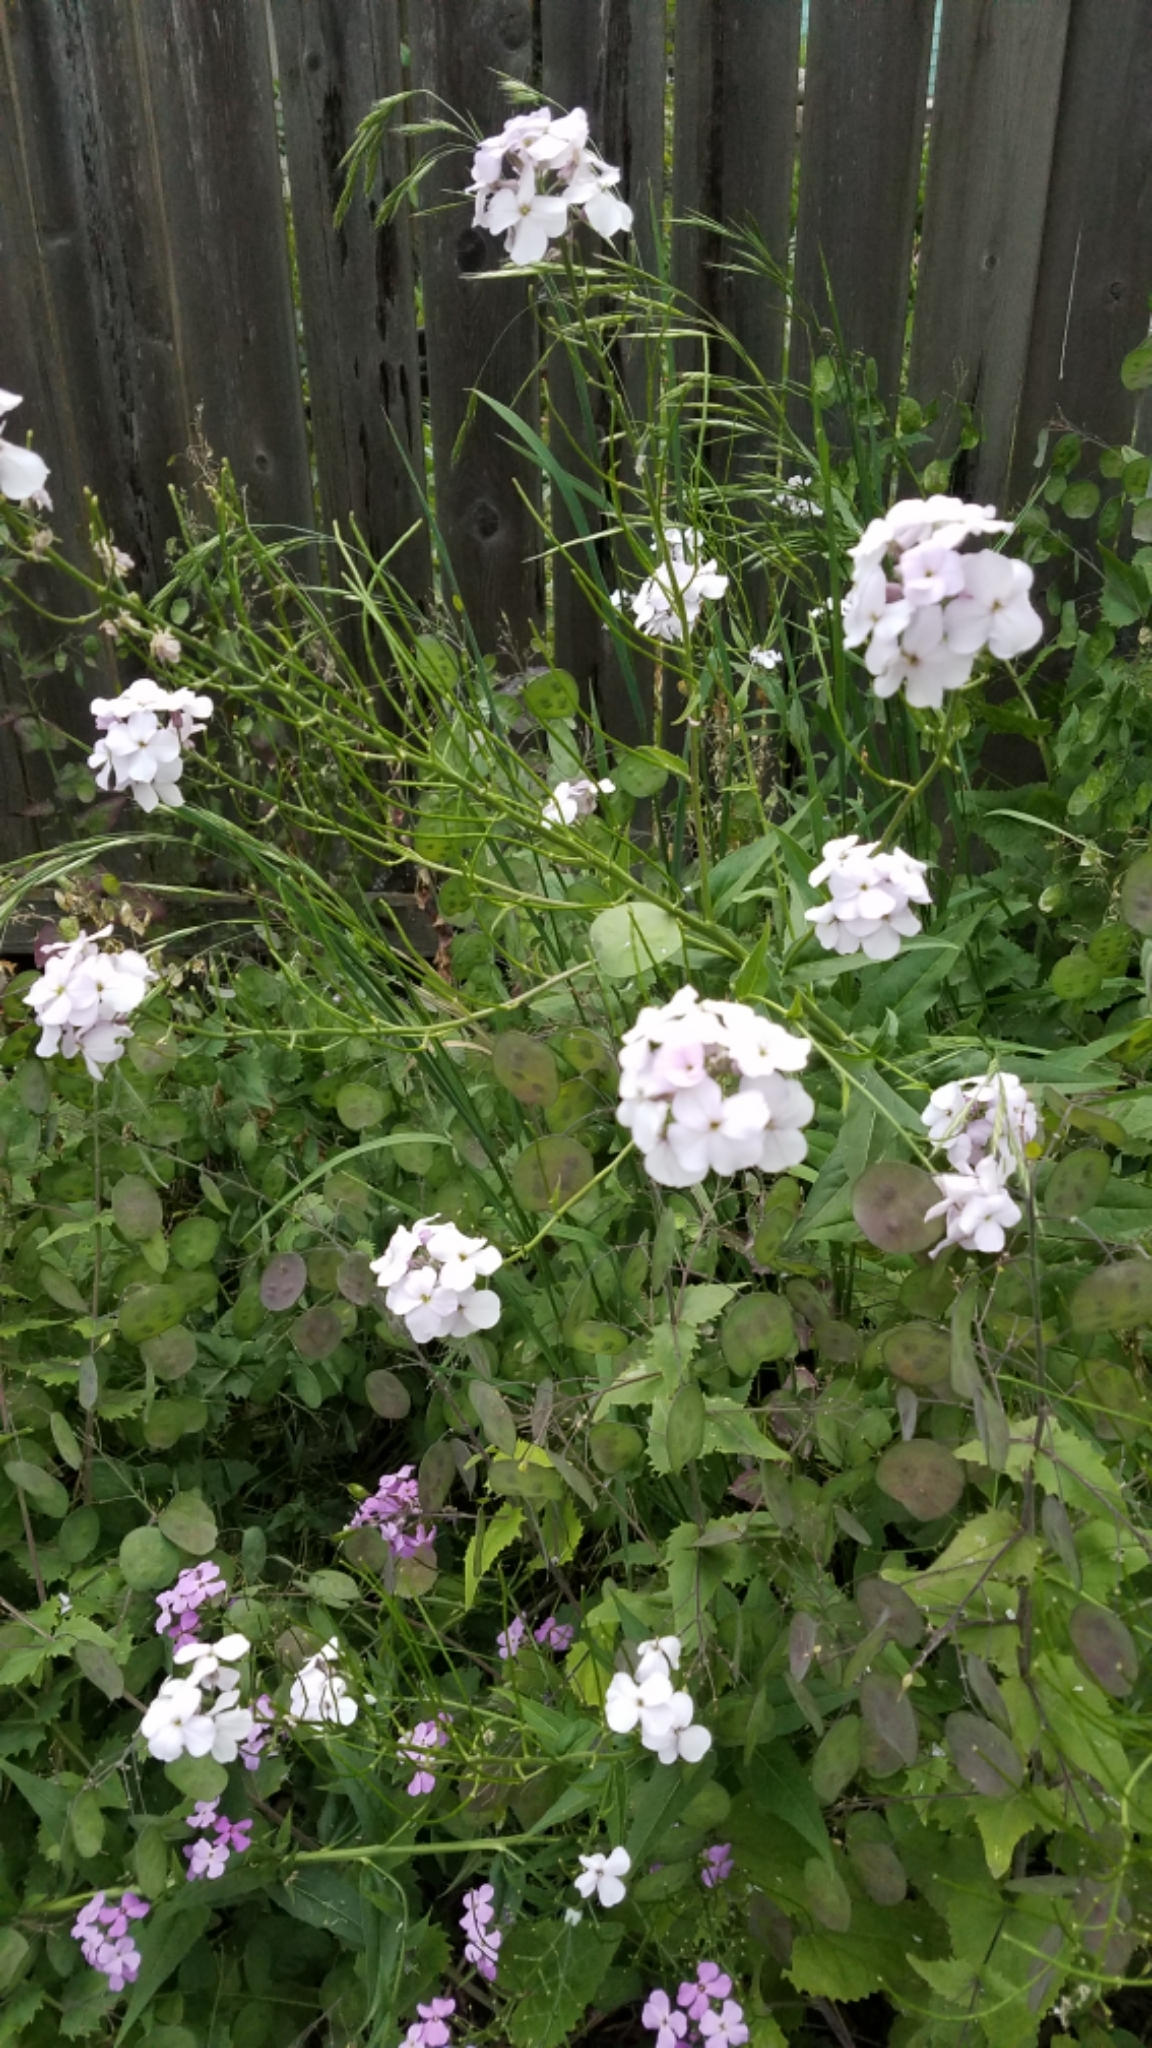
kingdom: Plantae
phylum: Tracheophyta
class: Magnoliopsida
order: Brassicales
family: Brassicaceae
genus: Hesperis
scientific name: Hesperis matronalis
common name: Dame's-violet
